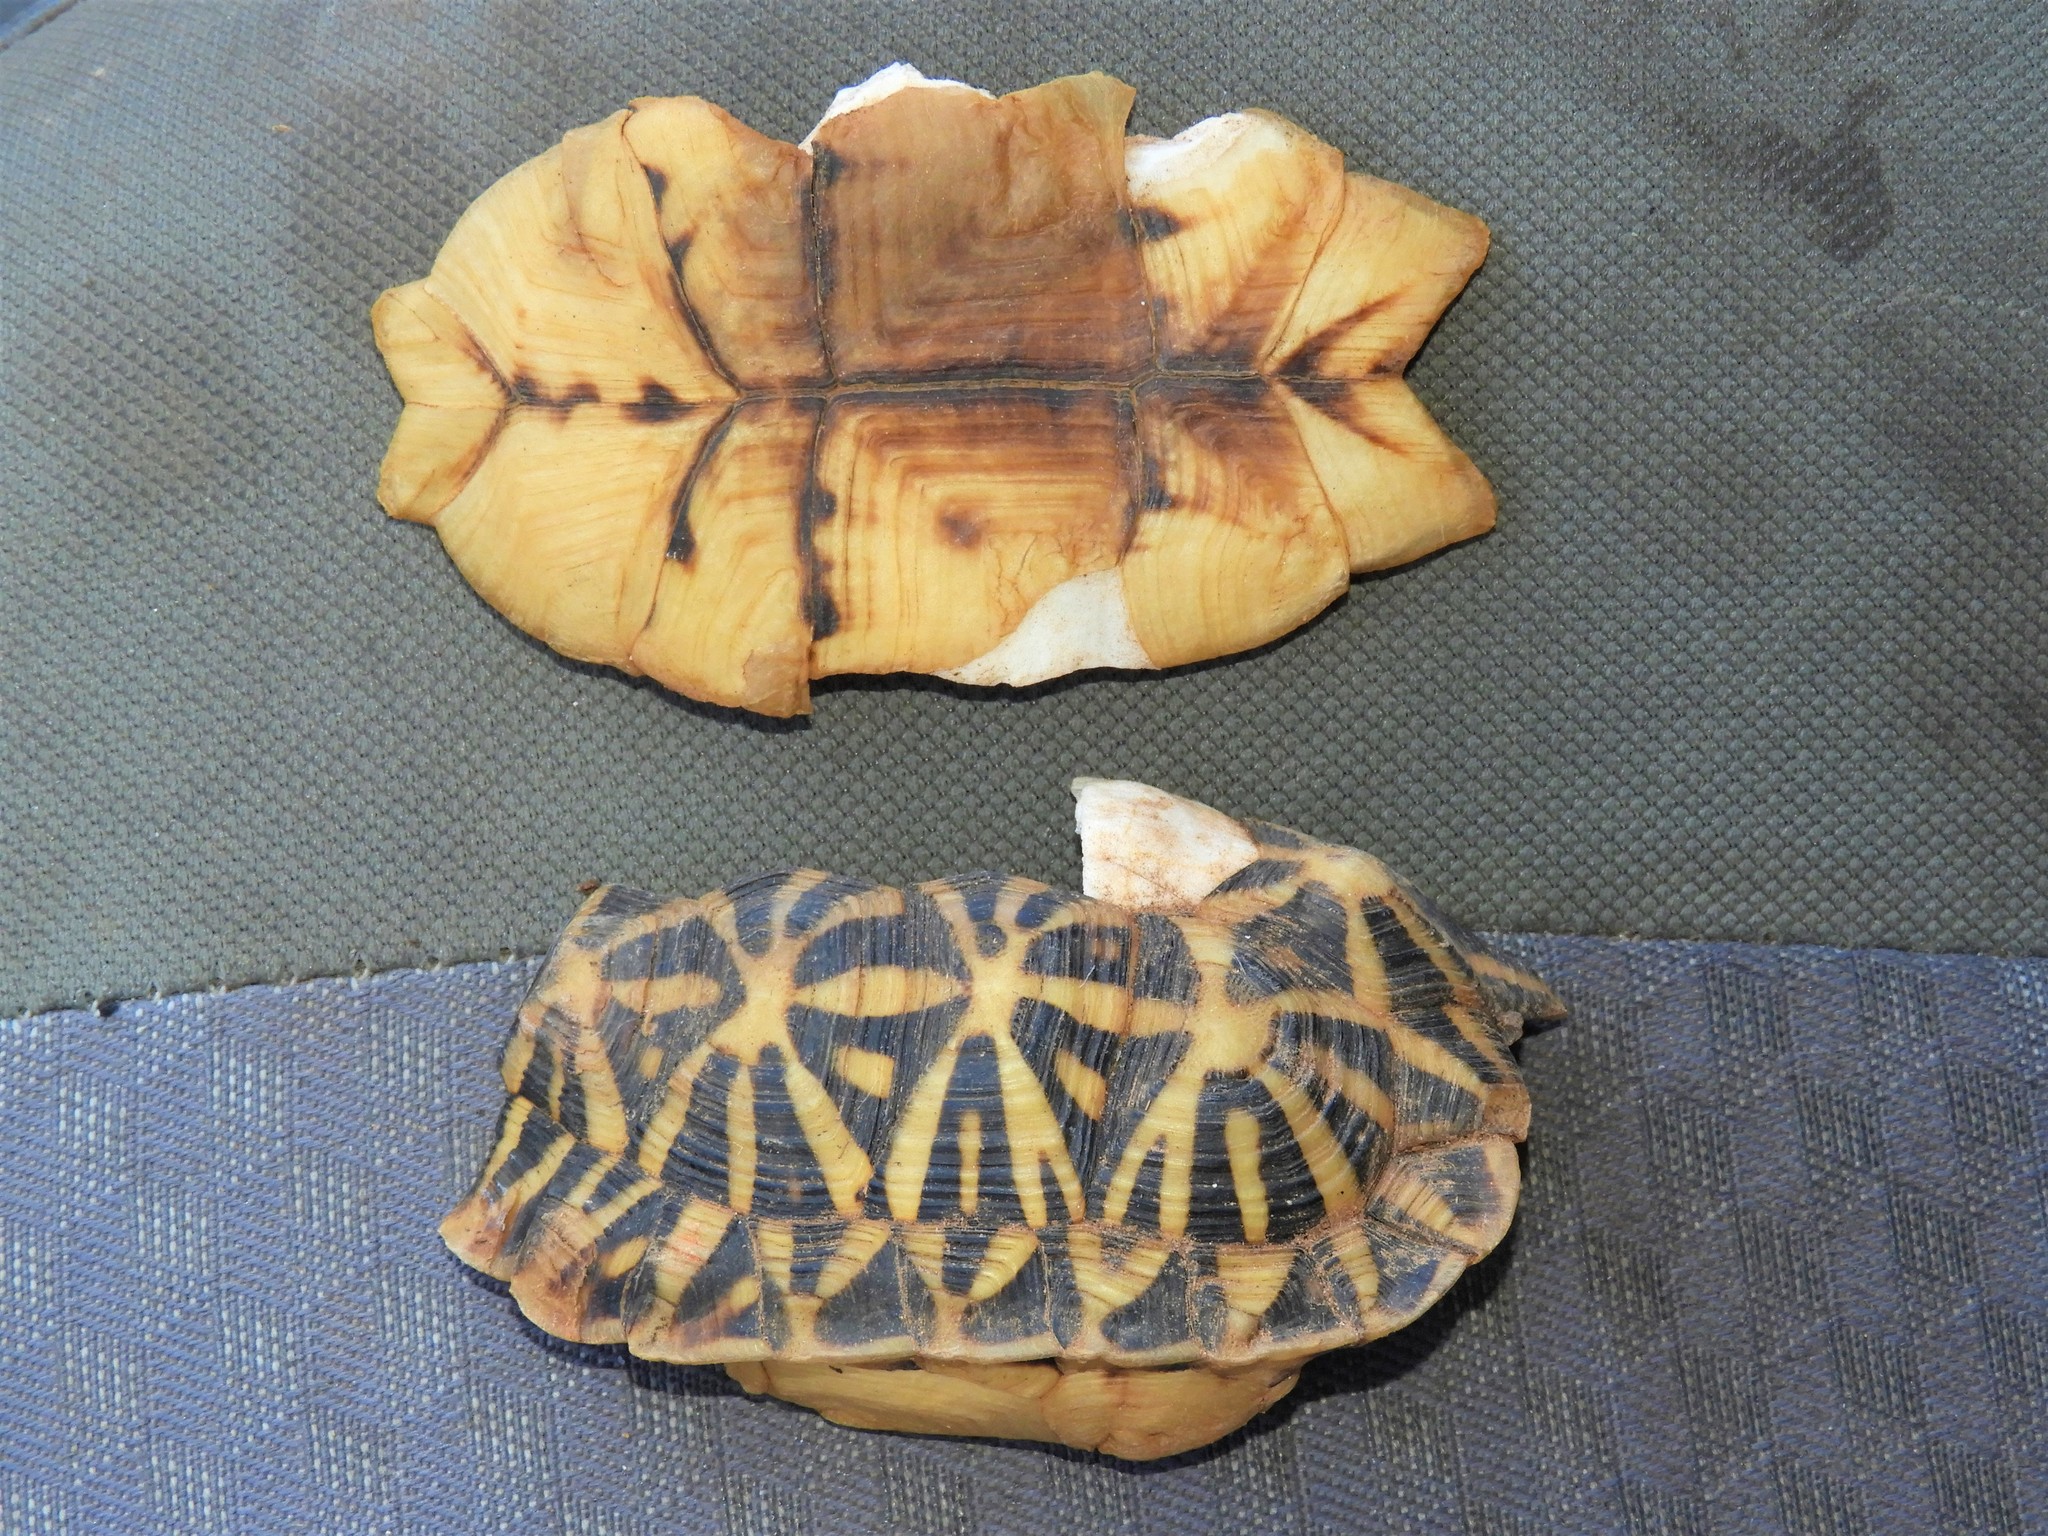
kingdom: Animalia
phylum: Chordata
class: Testudines
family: Testudinidae
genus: Psammobates
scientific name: Psammobates tentorius
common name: Tent tortoise
